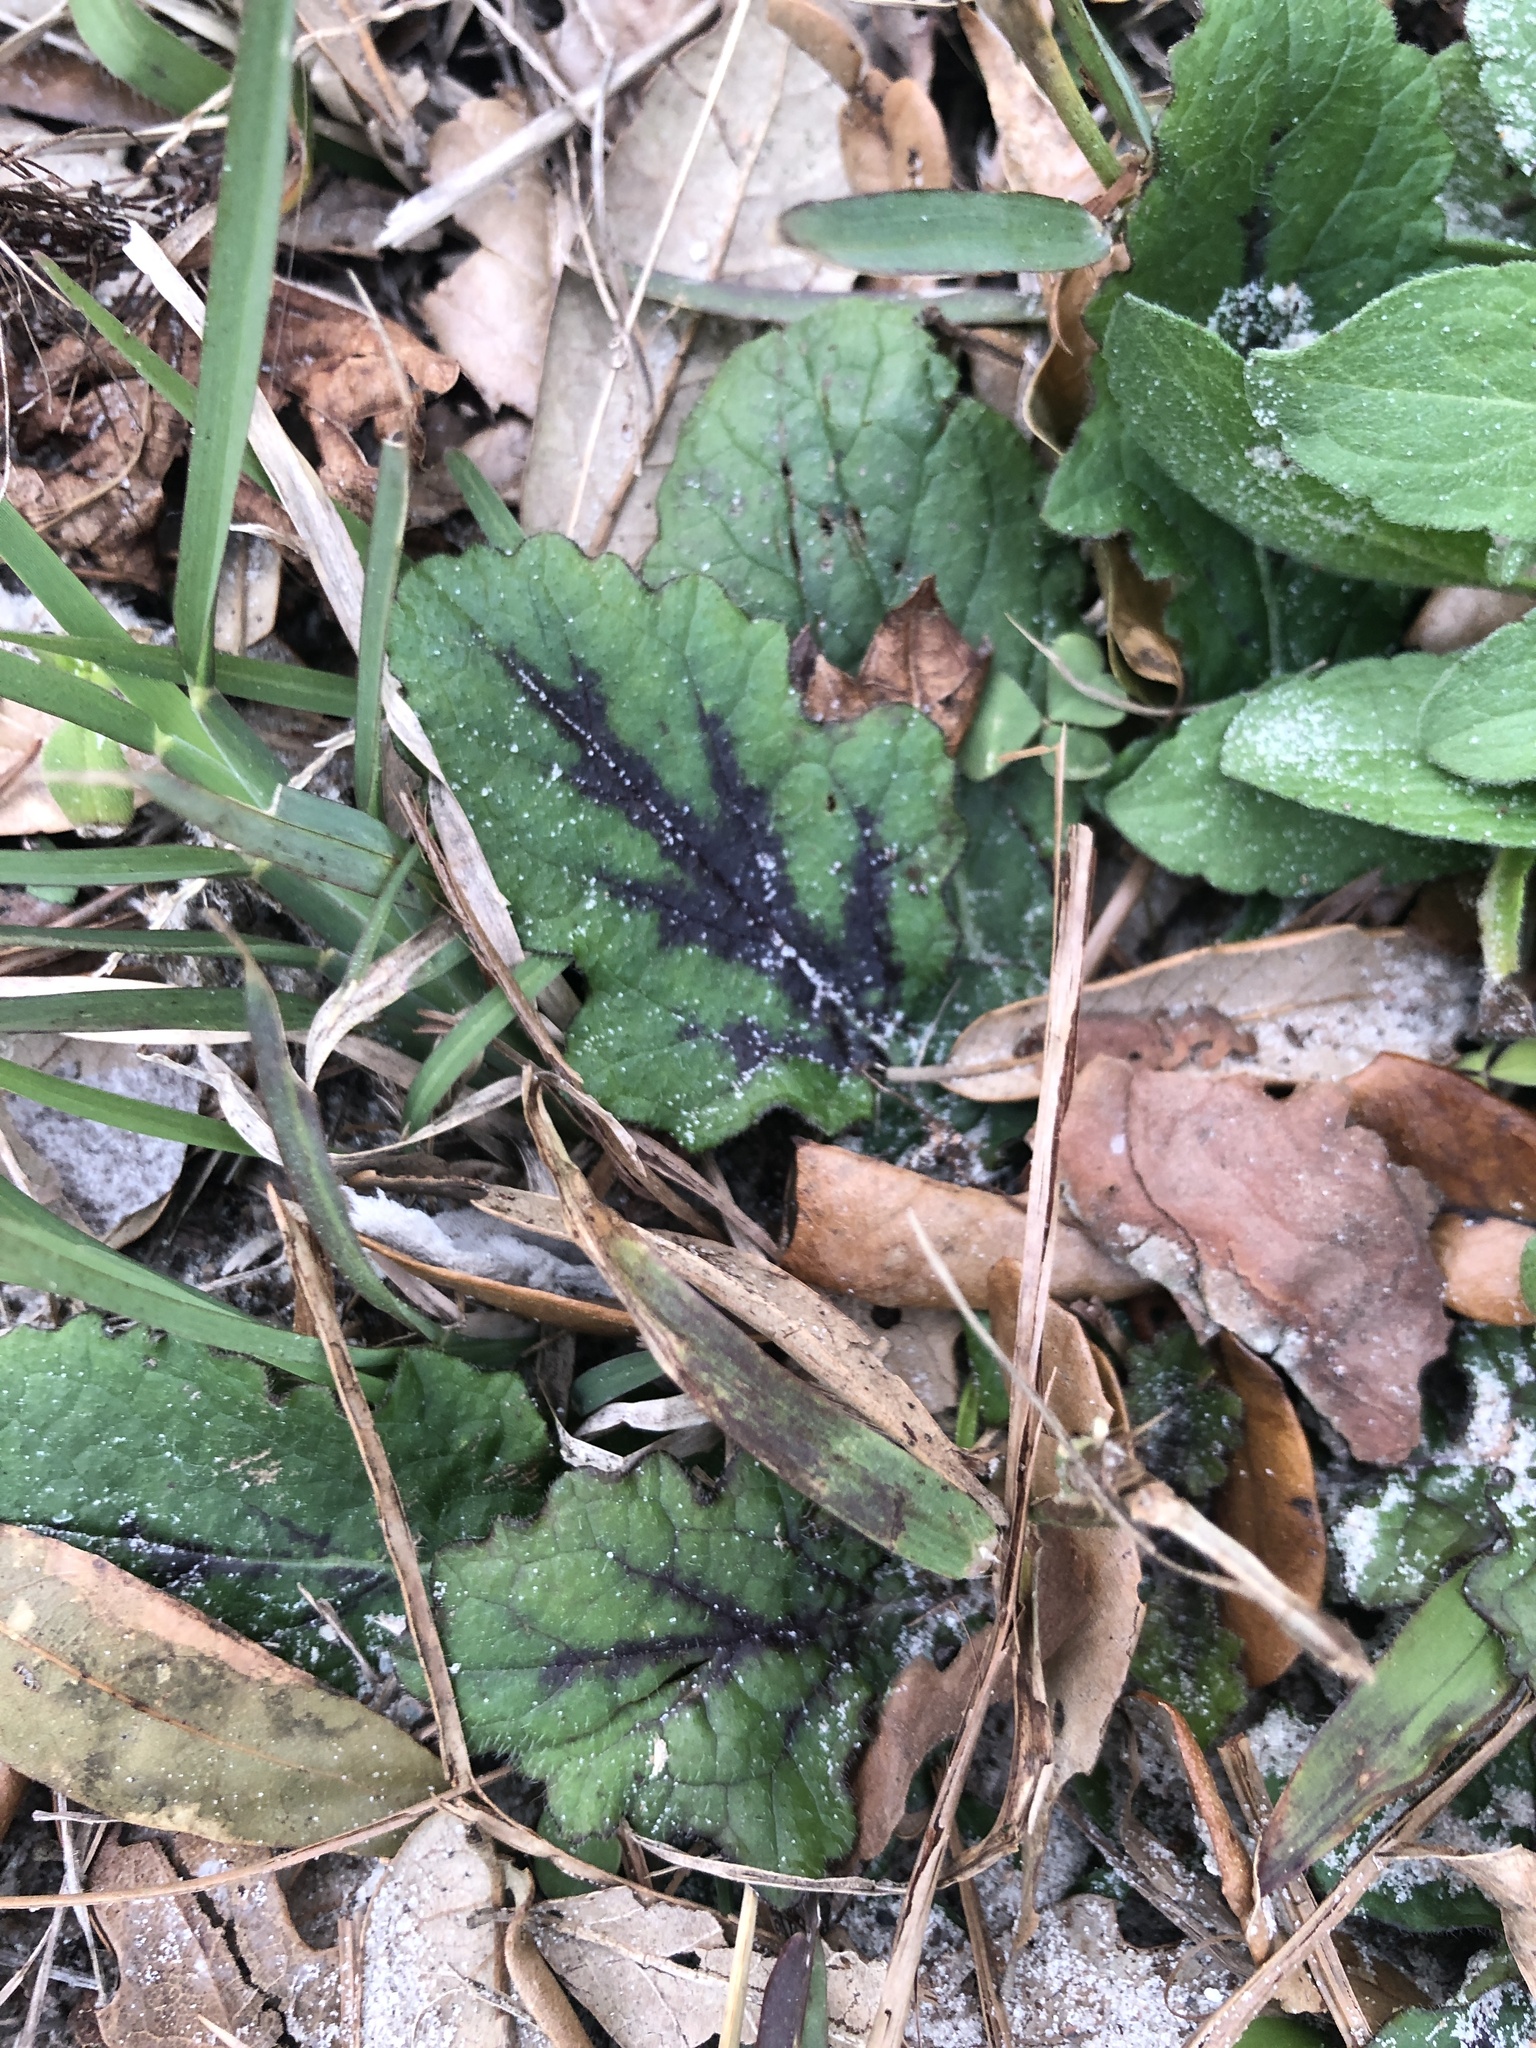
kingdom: Plantae
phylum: Tracheophyta
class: Magnoliopsida
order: Lamiales
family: Lamiaceae
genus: Salvia
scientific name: Salvia lyrata
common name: Cancerweed
